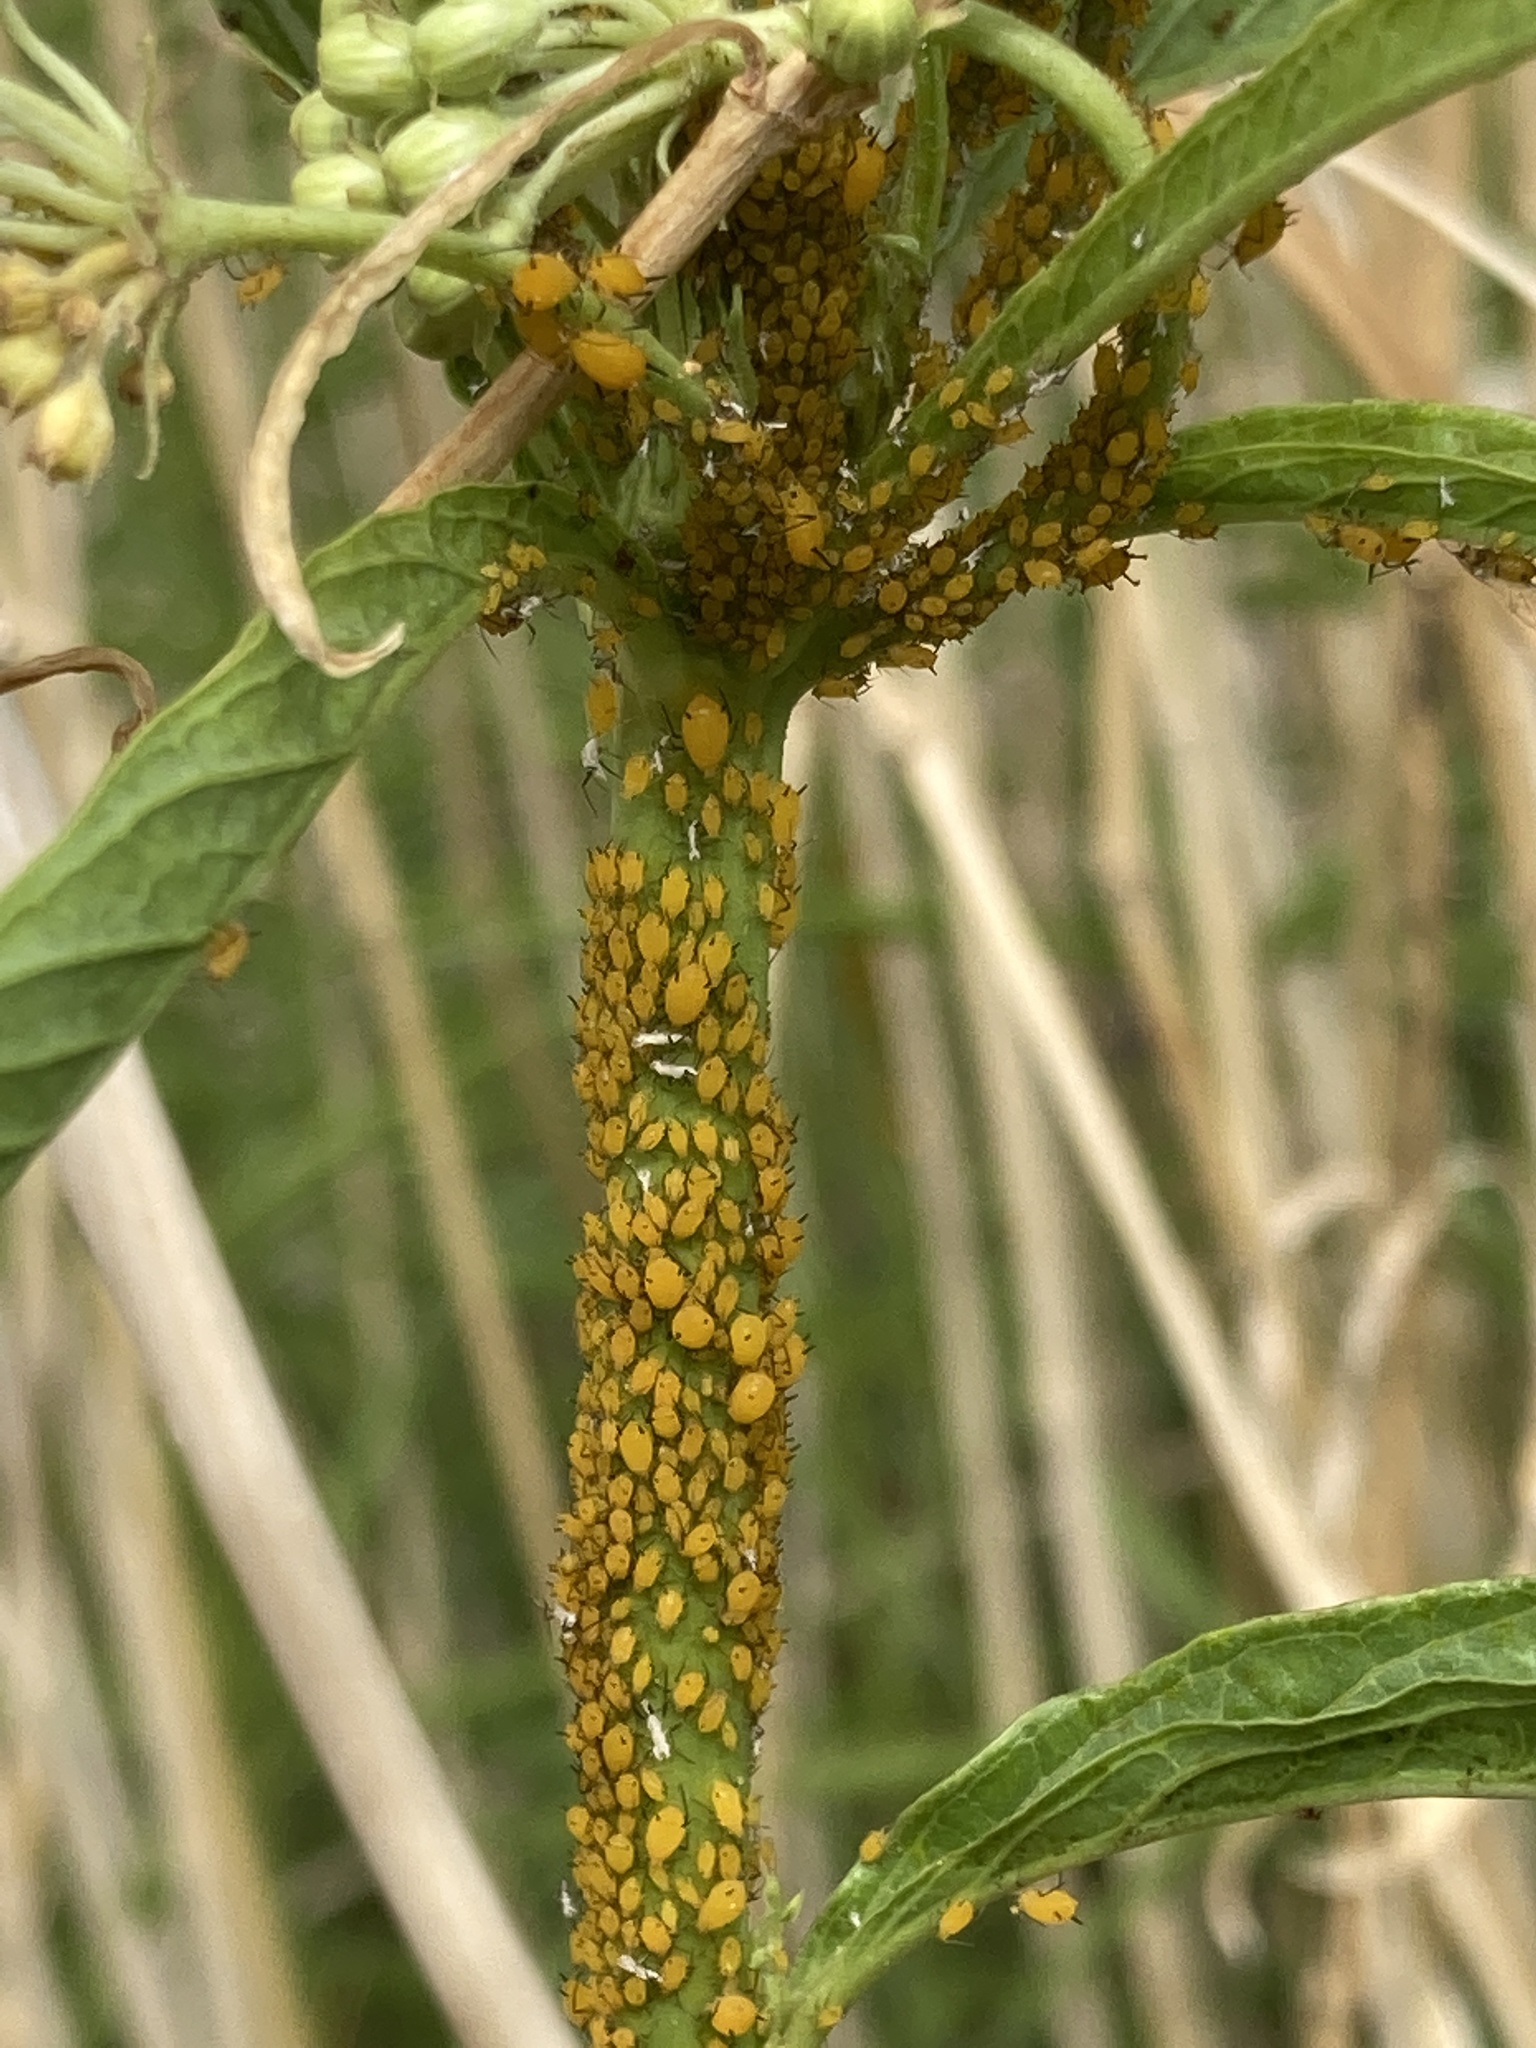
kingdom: Animalia
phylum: Arthropoda
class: Insecta
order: Hemiptera
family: Aphididae
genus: Aphis
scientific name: Aphis nerii
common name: Oleander aphid
